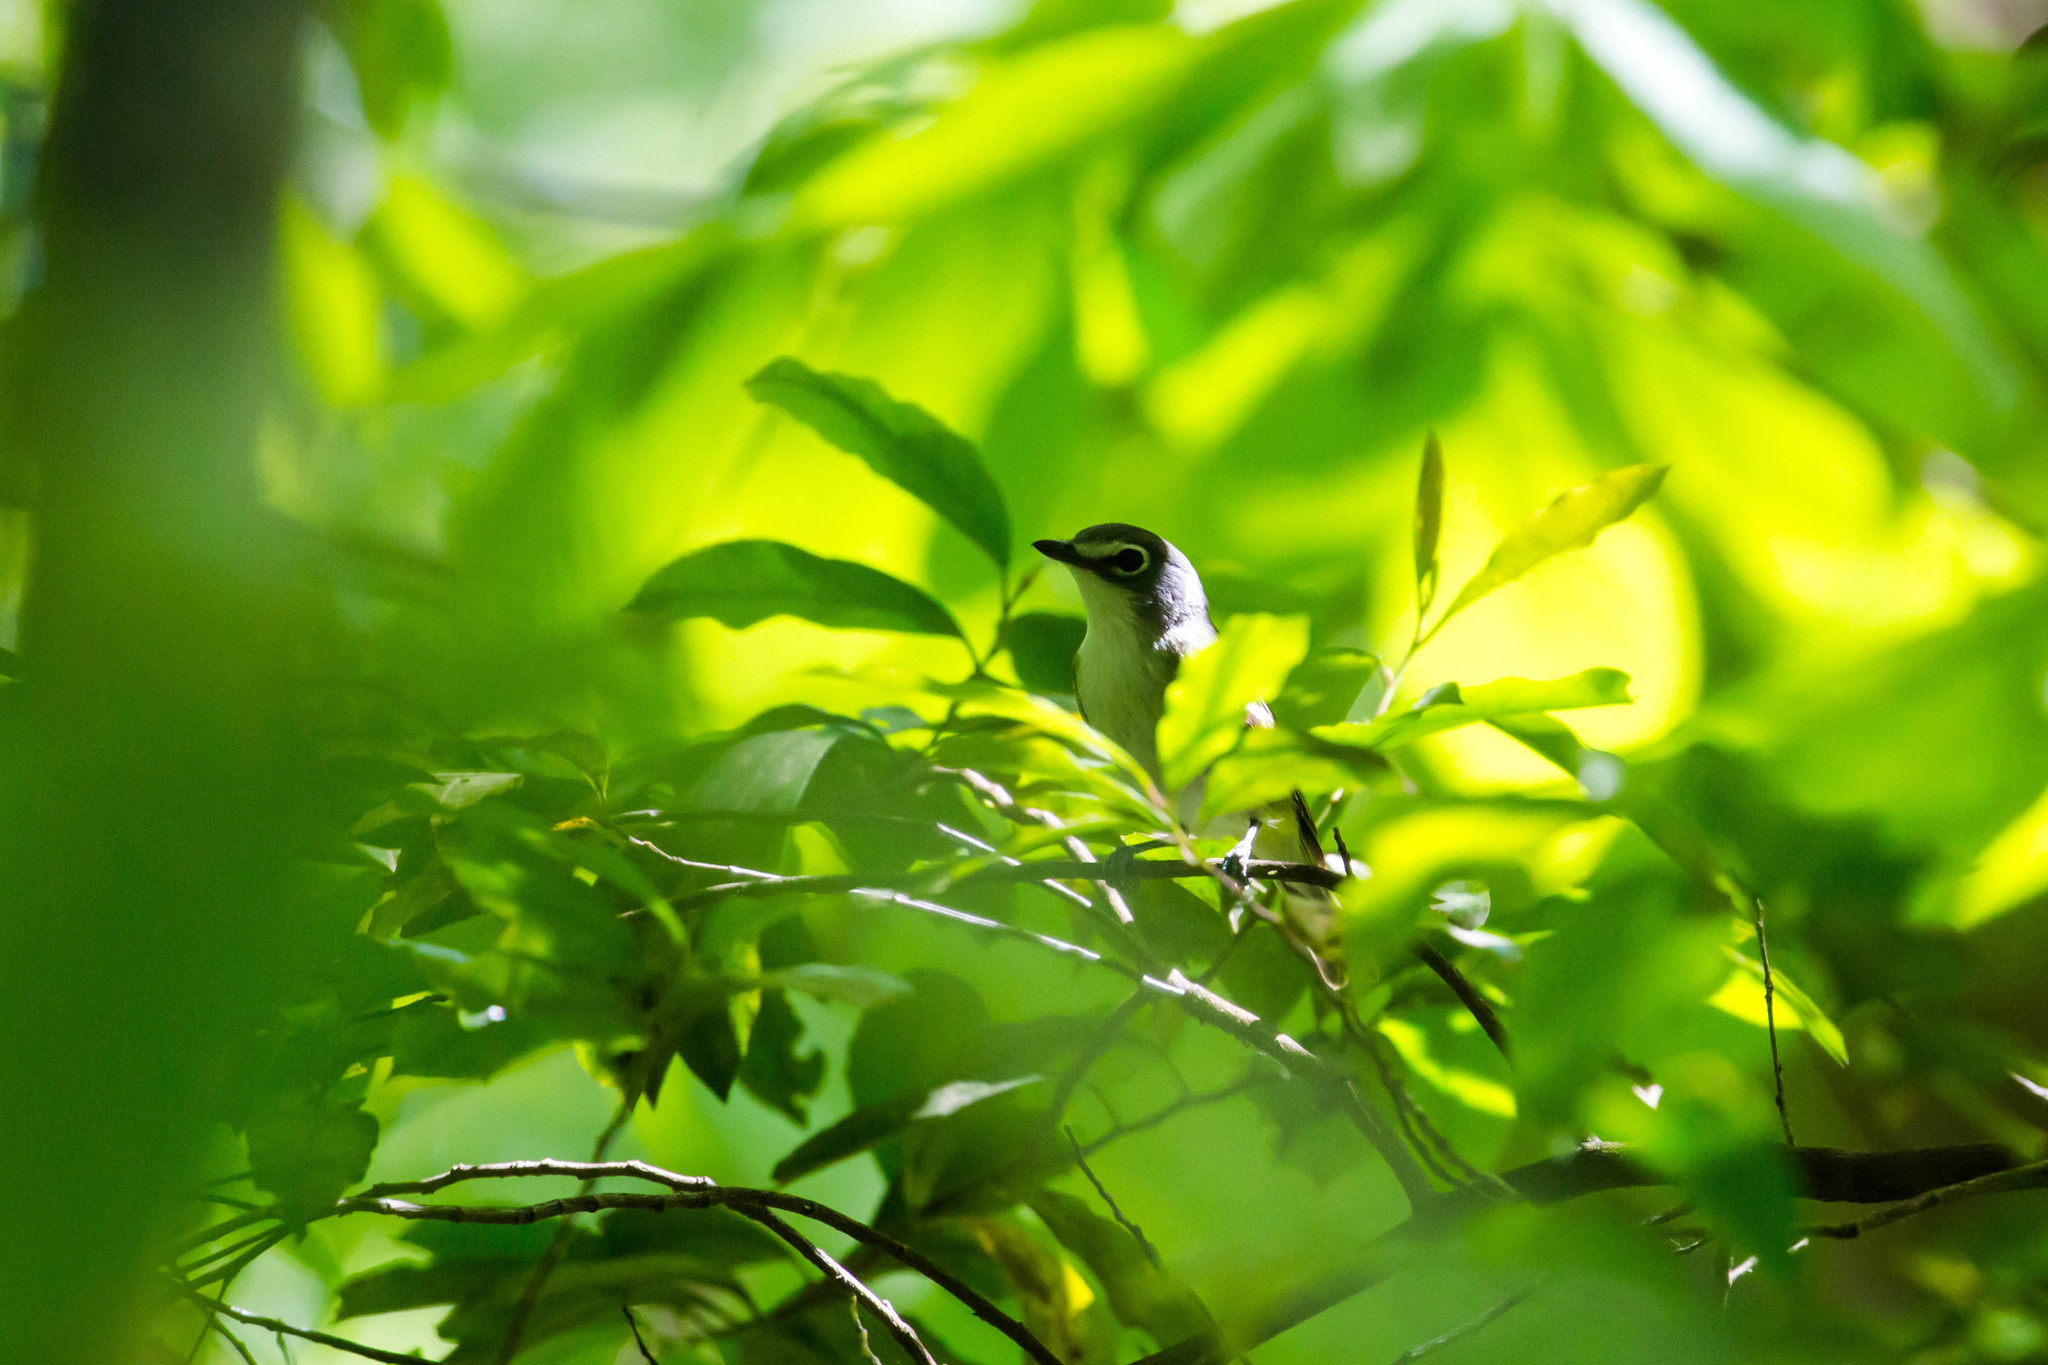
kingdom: Animalia
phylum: Chordata
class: Aves
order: Passeriformes
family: Vireonidae
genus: Vireo
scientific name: Vireo solitarius
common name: Blue-headed vireo
